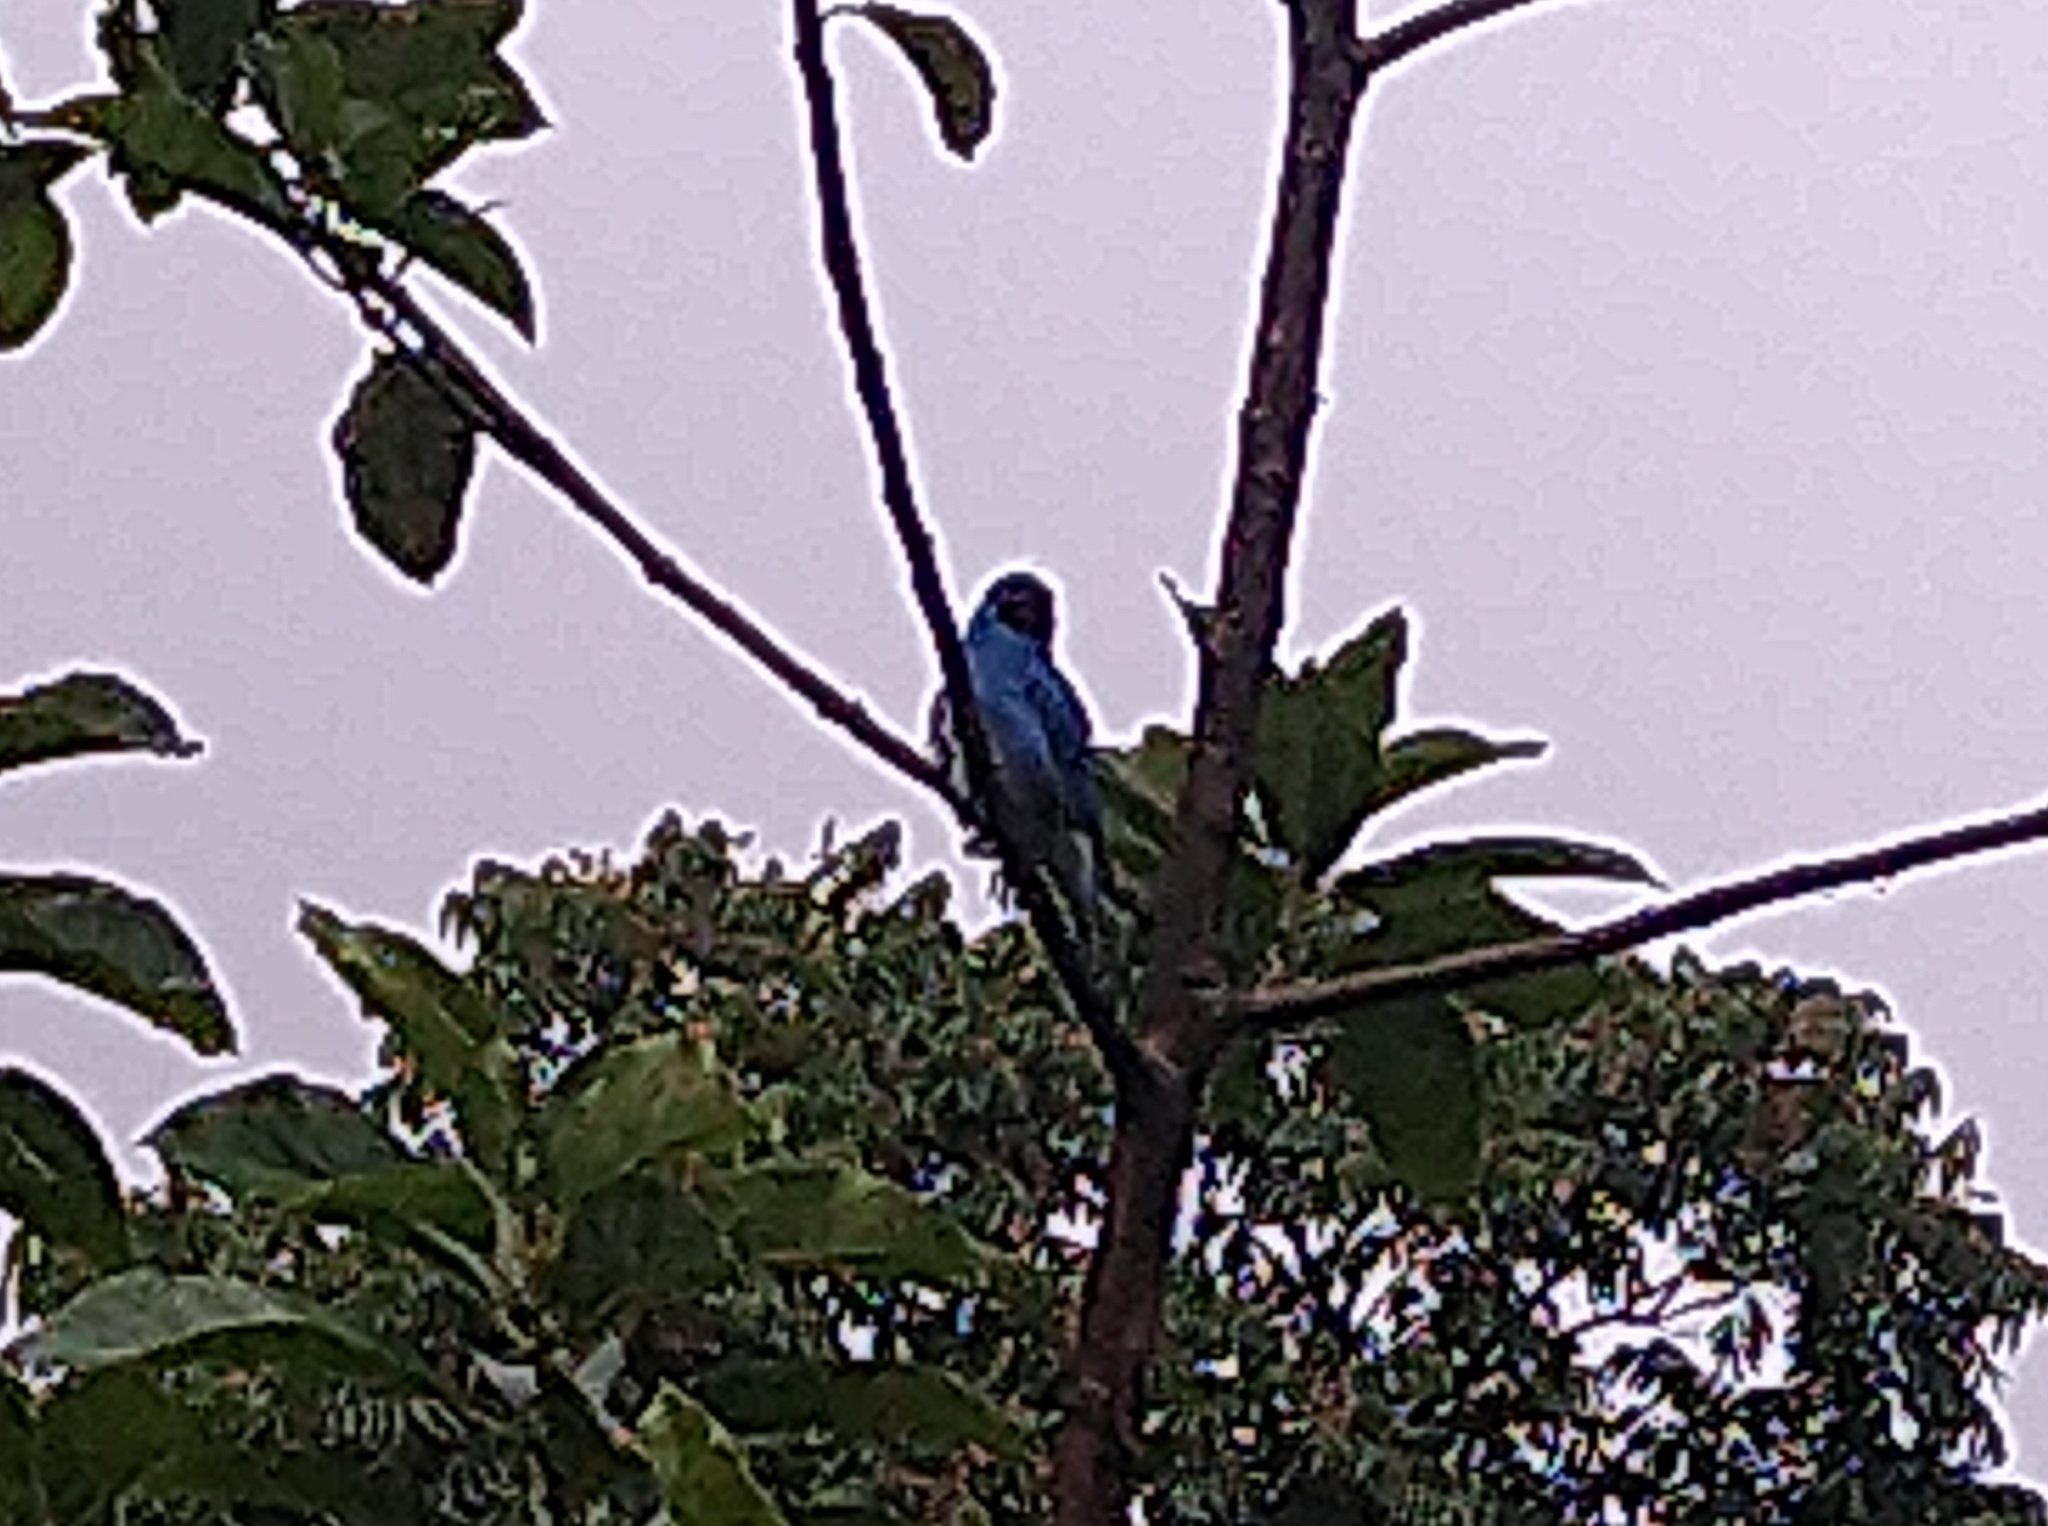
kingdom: Animalia
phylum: Chordata
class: Aves
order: Passeriformes
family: Thraupidae
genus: Tersina
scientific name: Tersina viridis
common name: Swallow tanager
